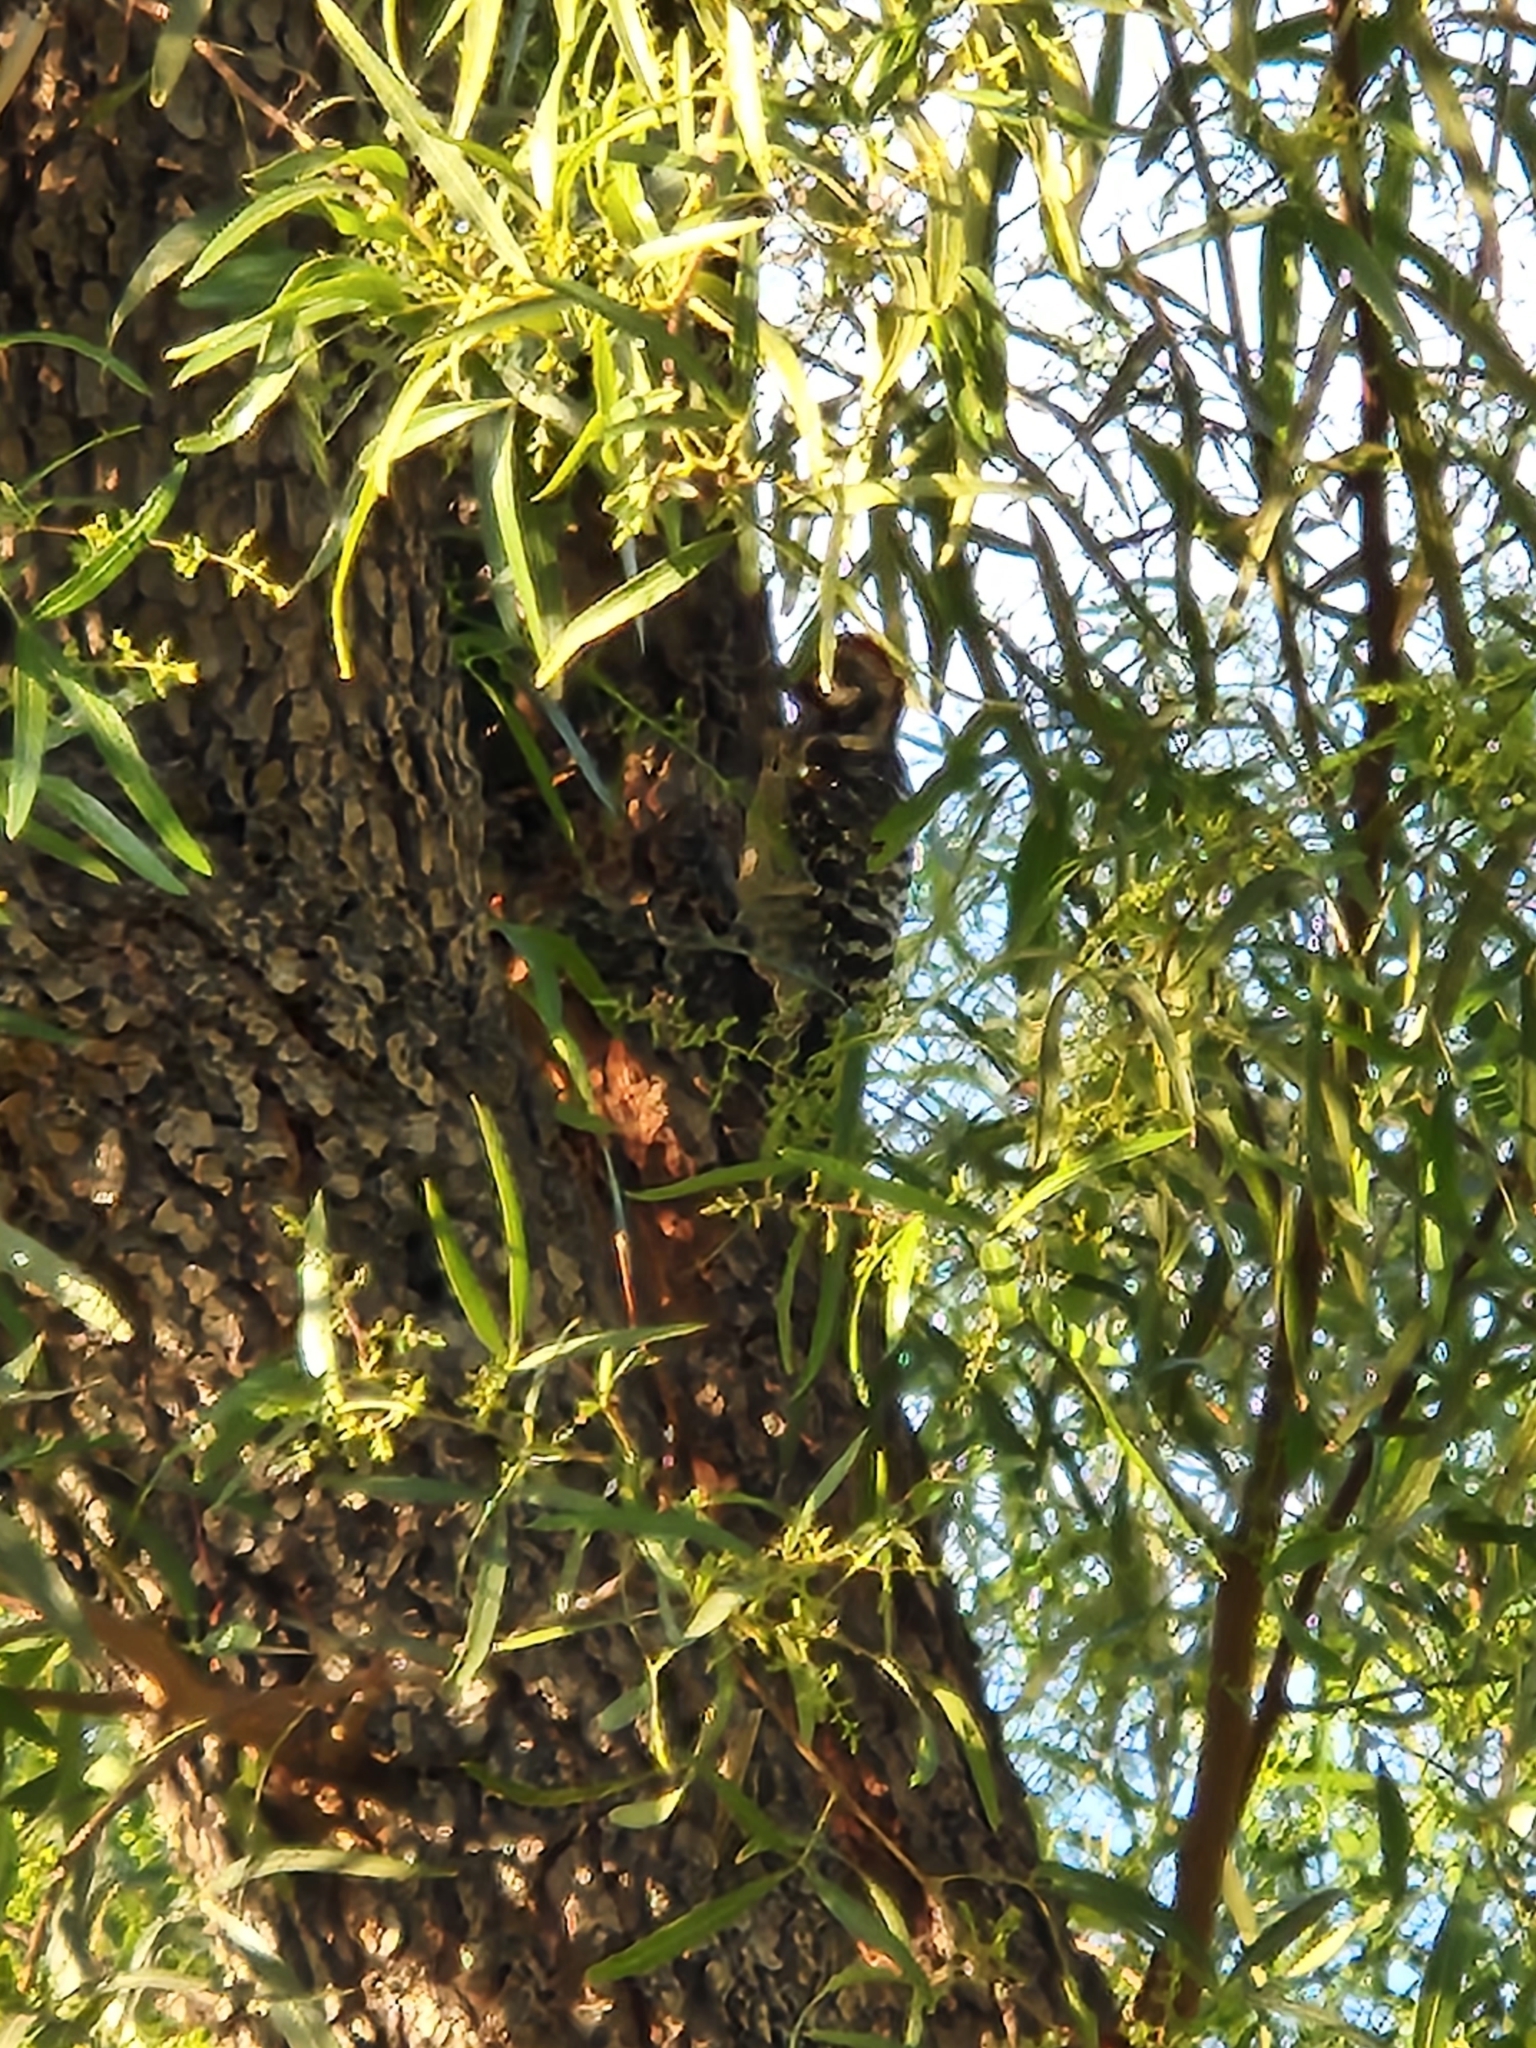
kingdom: Animalia
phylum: Chordata
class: Aves
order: Piciformes
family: Picidae
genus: Dryobates
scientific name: Dryobates scalaris
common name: Ladder-backed woodpecker
